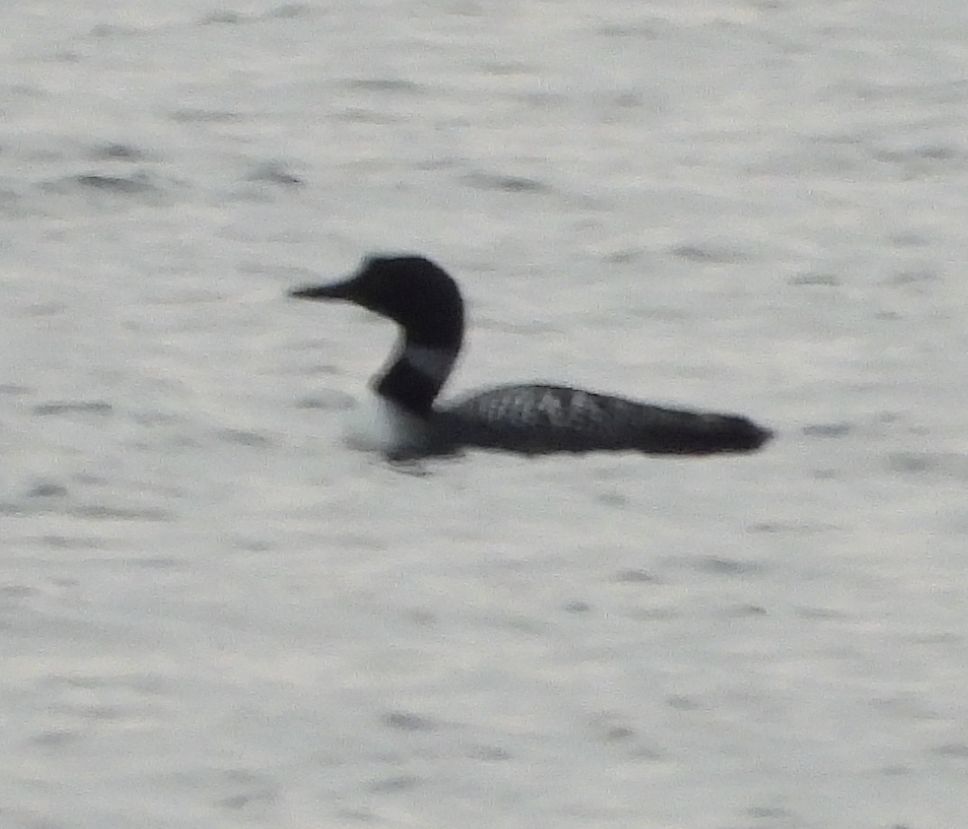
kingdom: Animalia
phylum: Chordata
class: Aves
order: Gaviiformes
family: Gaviidae
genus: Gavia
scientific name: Gavia immer
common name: Common loon
